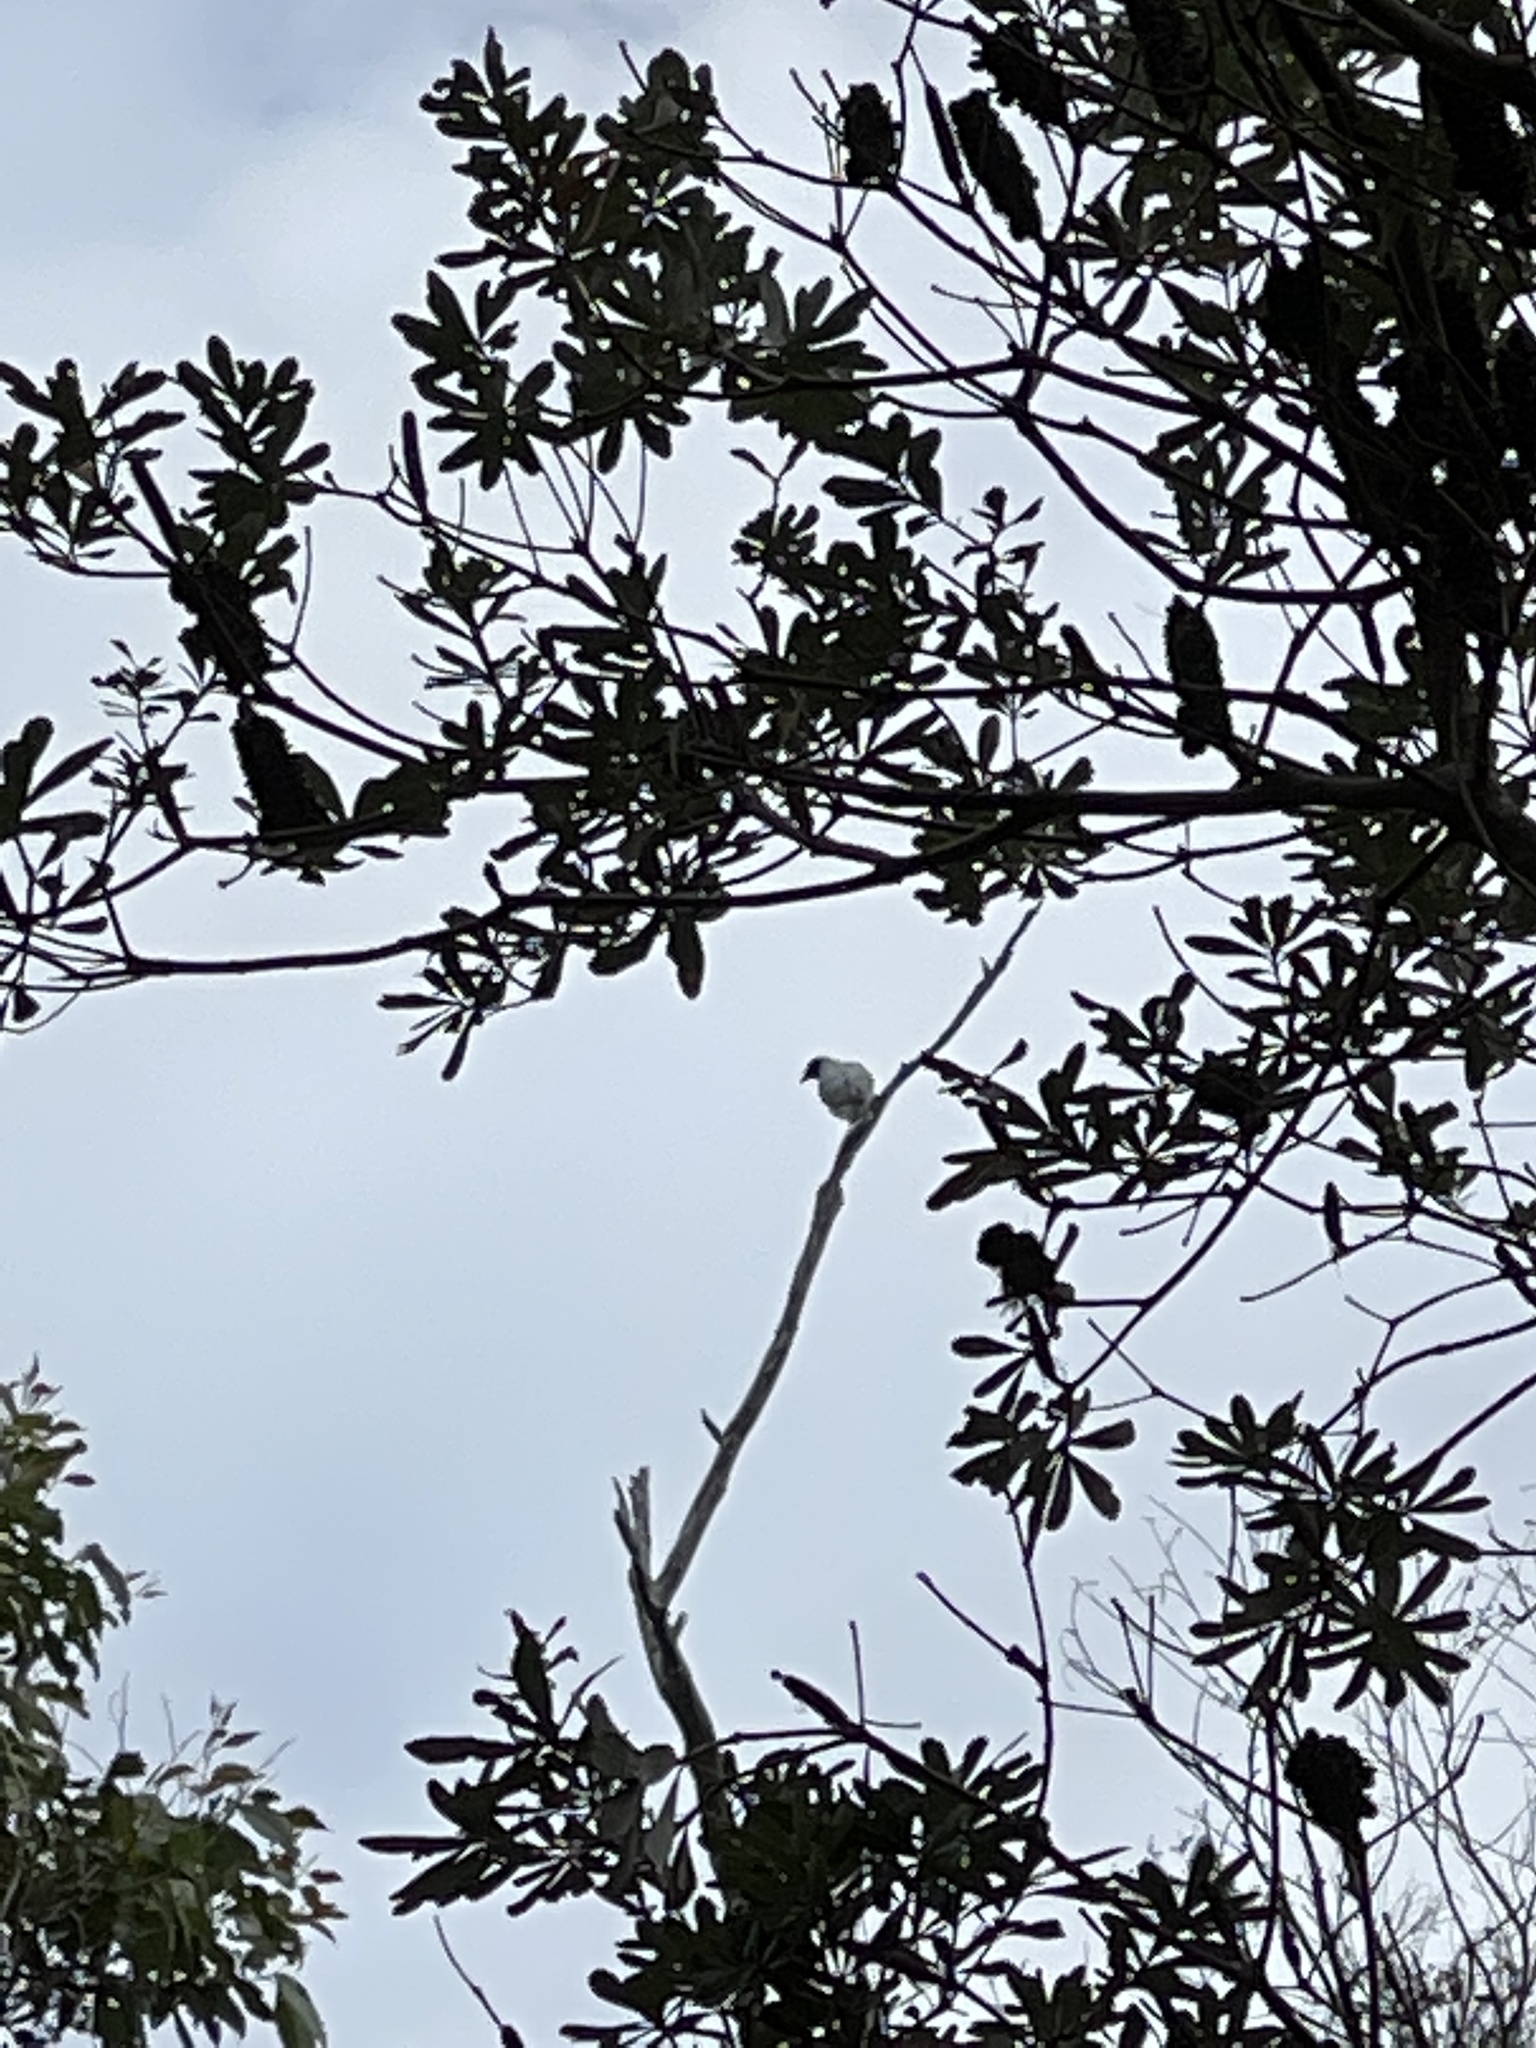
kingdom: Animalia
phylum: Chordata
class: Aves
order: Passeriformes
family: Campephagidae
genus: Coracina
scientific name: Coracina novaehollandiae
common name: Black-faced cuckooshrike
